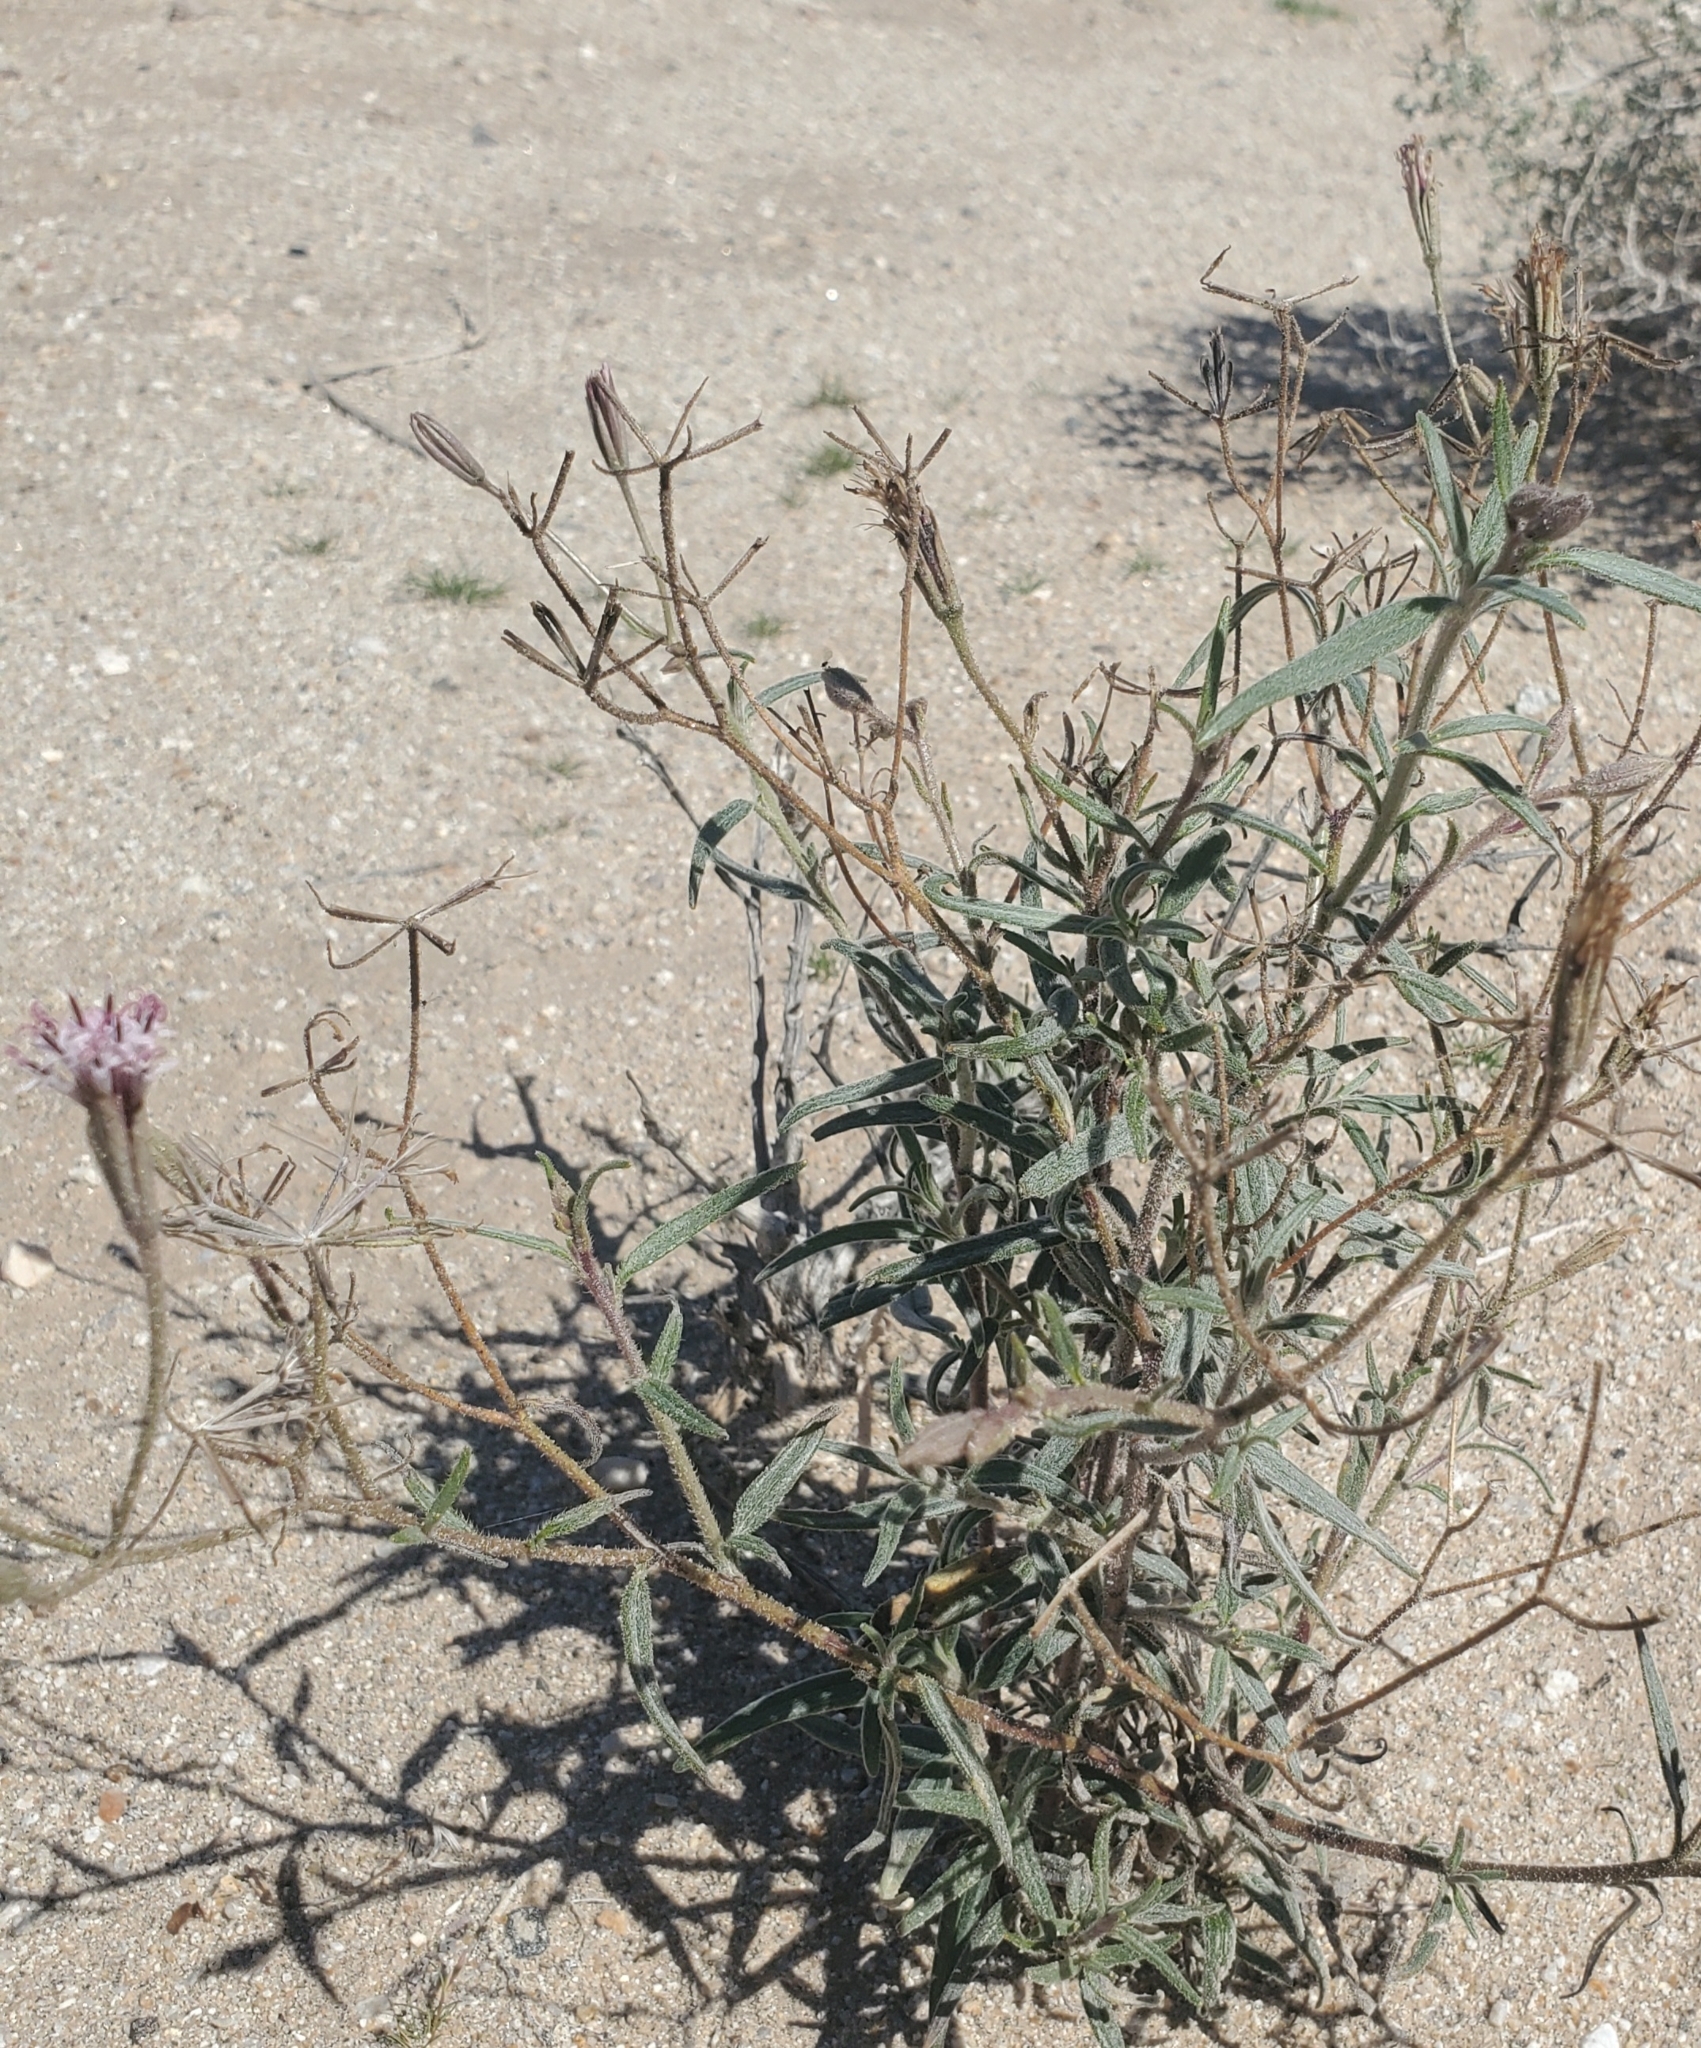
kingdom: Plantae
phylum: Tracheophyta
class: Magnoliopsida
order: Asterales
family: Asteraceae
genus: Palafoxia
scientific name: Palafoxia arida
